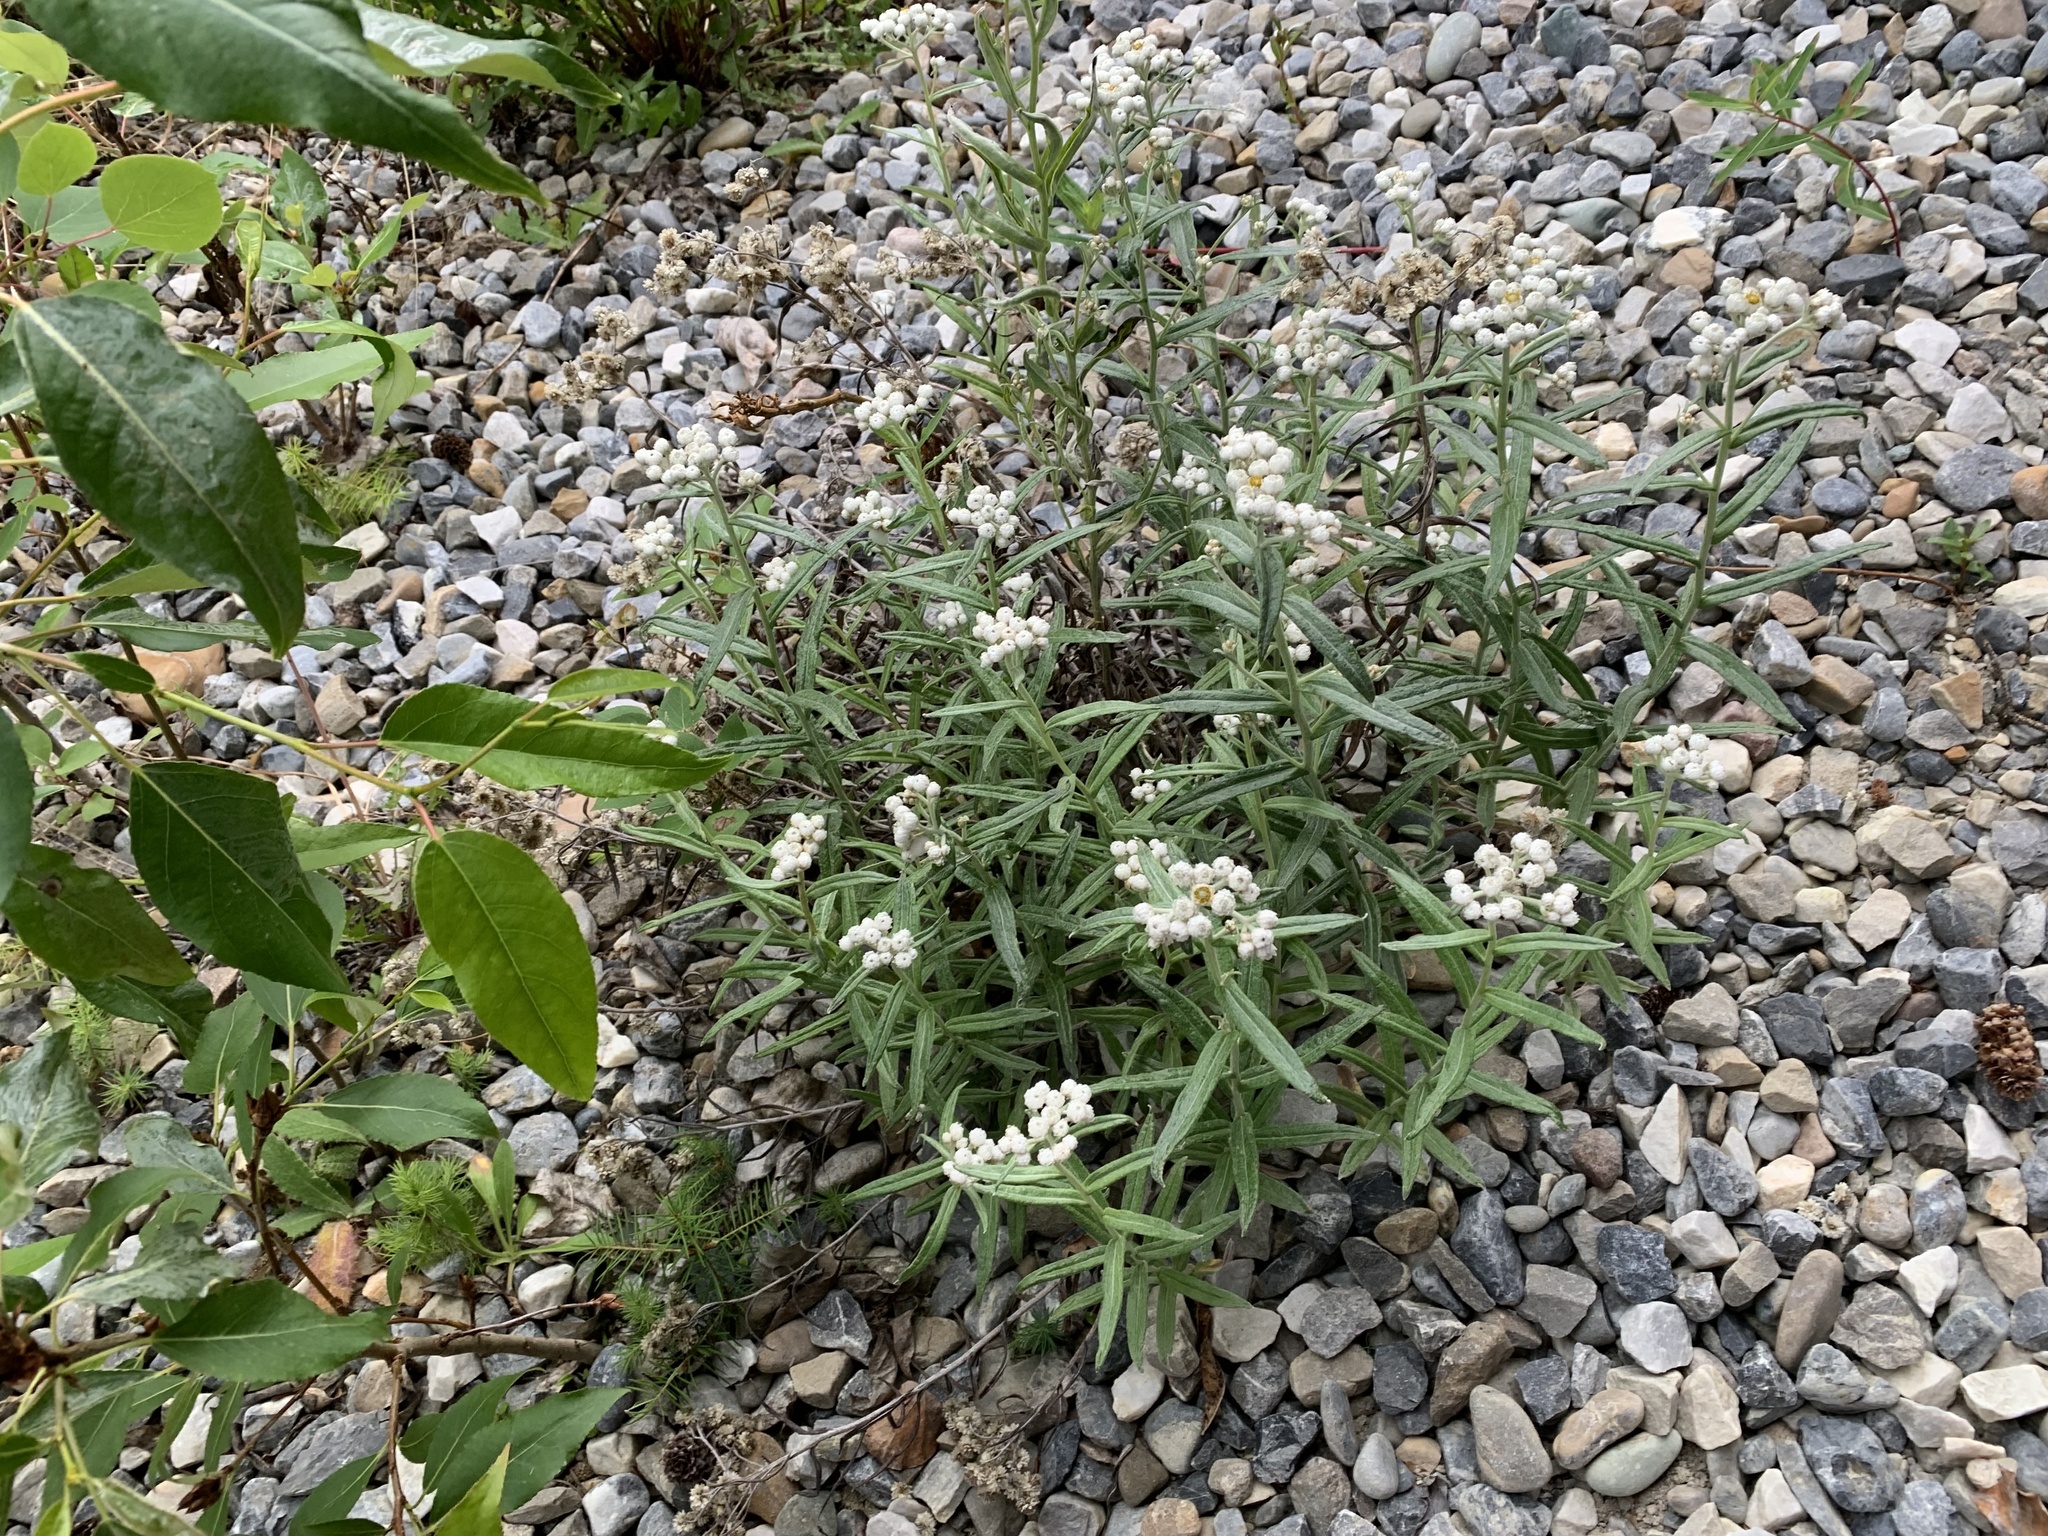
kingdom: Plantae
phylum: Tracheophyta
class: Magnoliopsida
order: Asterales
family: Asteraceae
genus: Anaphalis
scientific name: Anaphalis margaritacea
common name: Pearly everlasting
